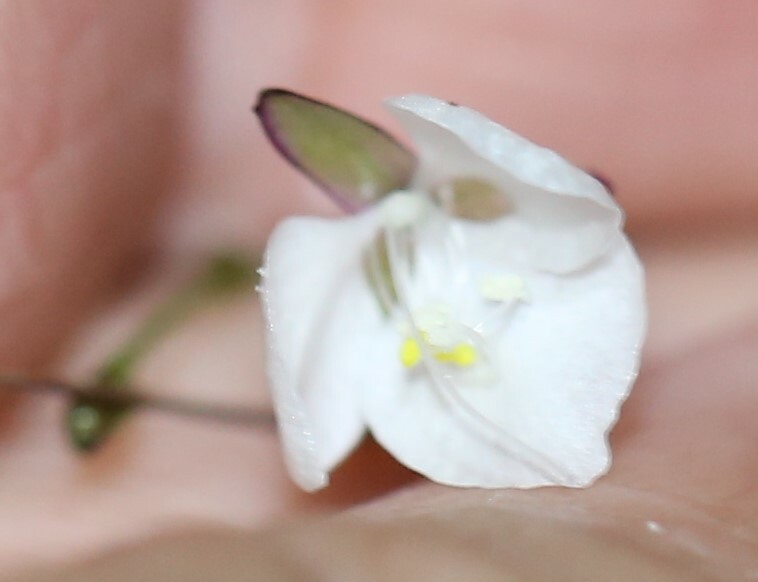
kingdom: Plantae
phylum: Tracheophyta
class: Liliopsida
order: Commelinales
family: Commelinaceae
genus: Aneilema
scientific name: Aneilema acuminatum
